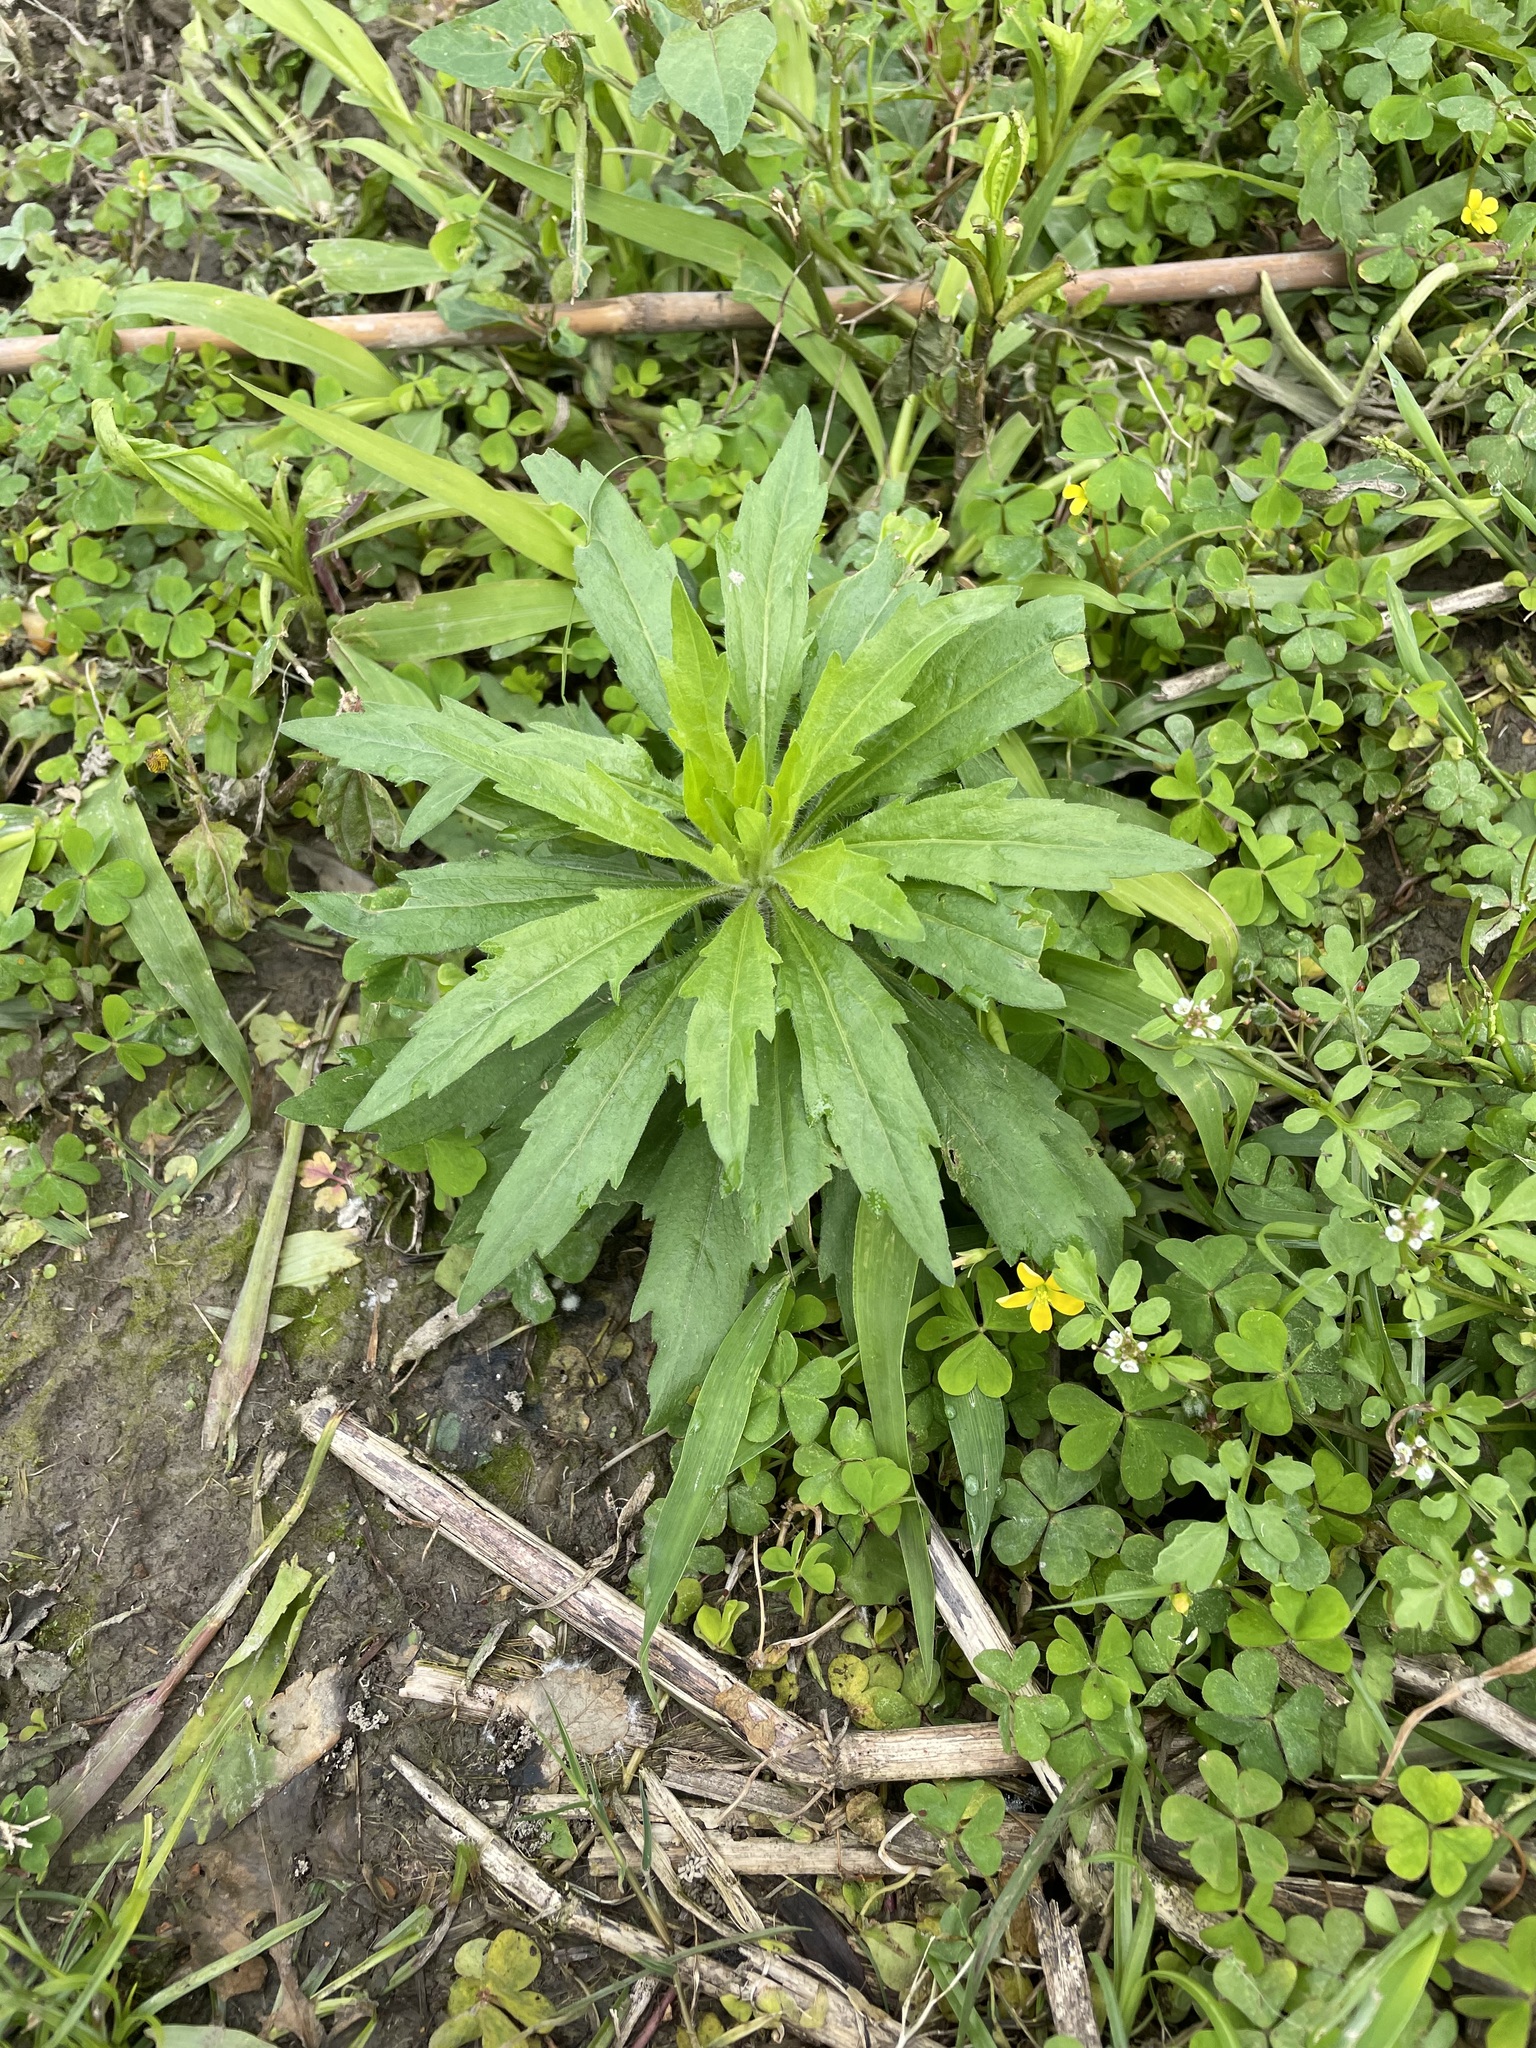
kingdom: Plantae
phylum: Tracheophyta
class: Magnoliopsida
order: Asterales
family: Asteraceae
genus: Erigeron
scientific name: Erigeron sumatrensis
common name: Daisy
